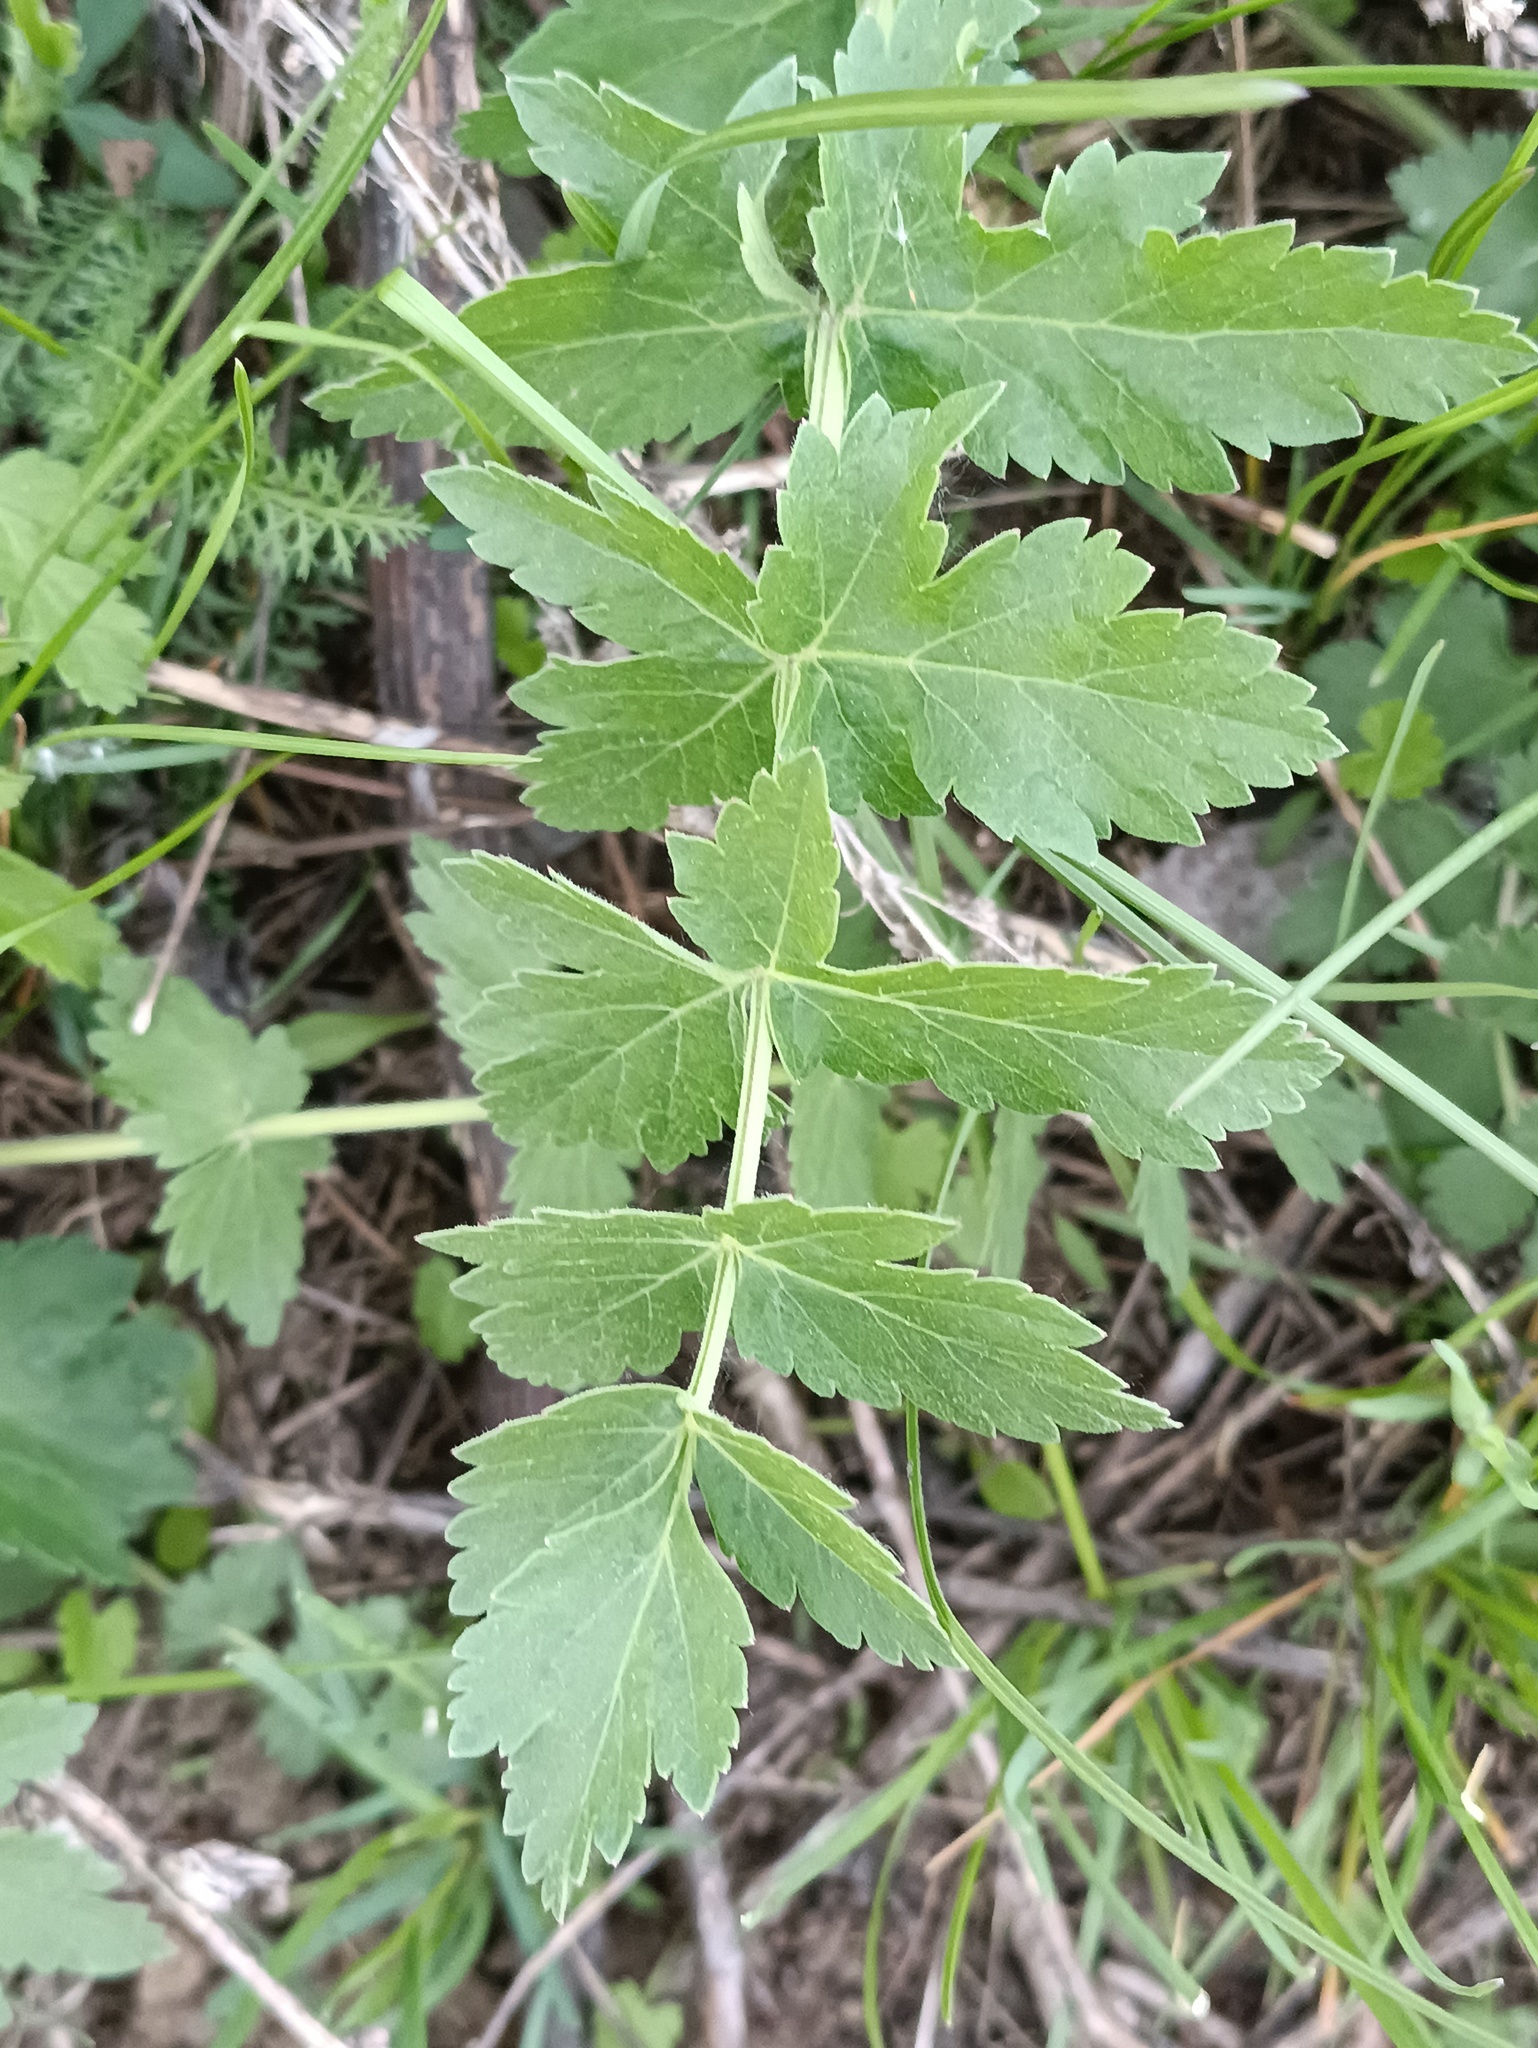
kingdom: Plantae
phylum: Tracheophyta
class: Magnoliopsida
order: Apiales
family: Apiaceae
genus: Pastinaca
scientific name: Pastinaca sativa
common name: Wild parsnip
